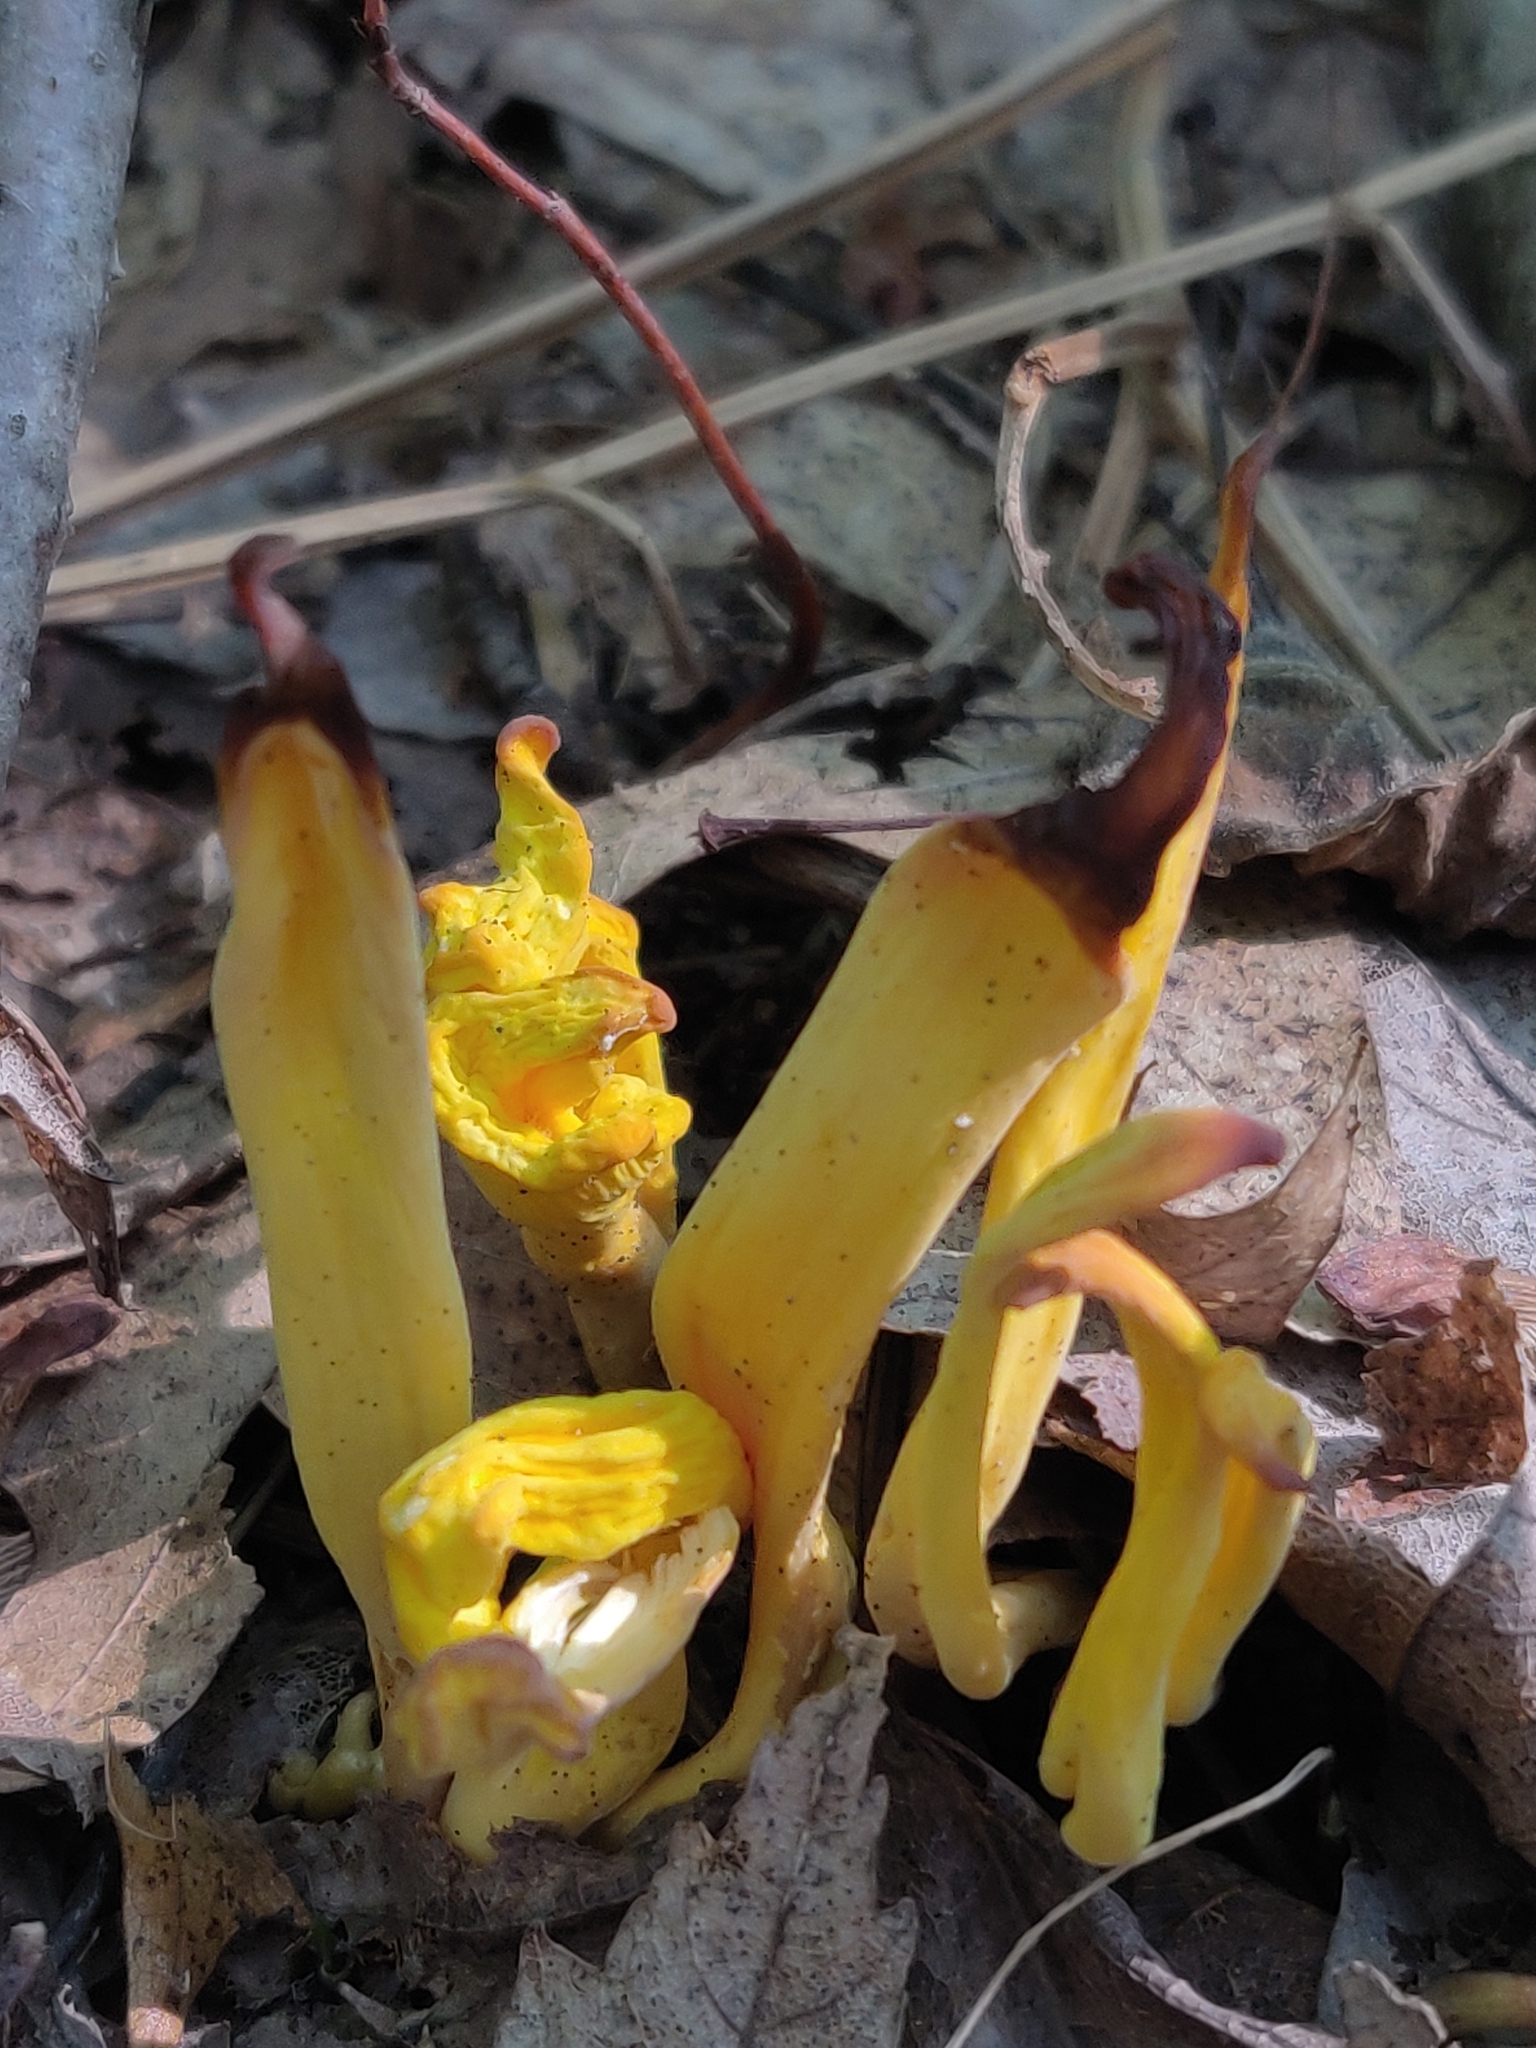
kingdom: Fungi
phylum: Basidiomycota
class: Agaricomycetes
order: Agaricales
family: Clavariaceae
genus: Clavulinopsis
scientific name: Clavulinopsis fusiformis
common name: Golden spindles
